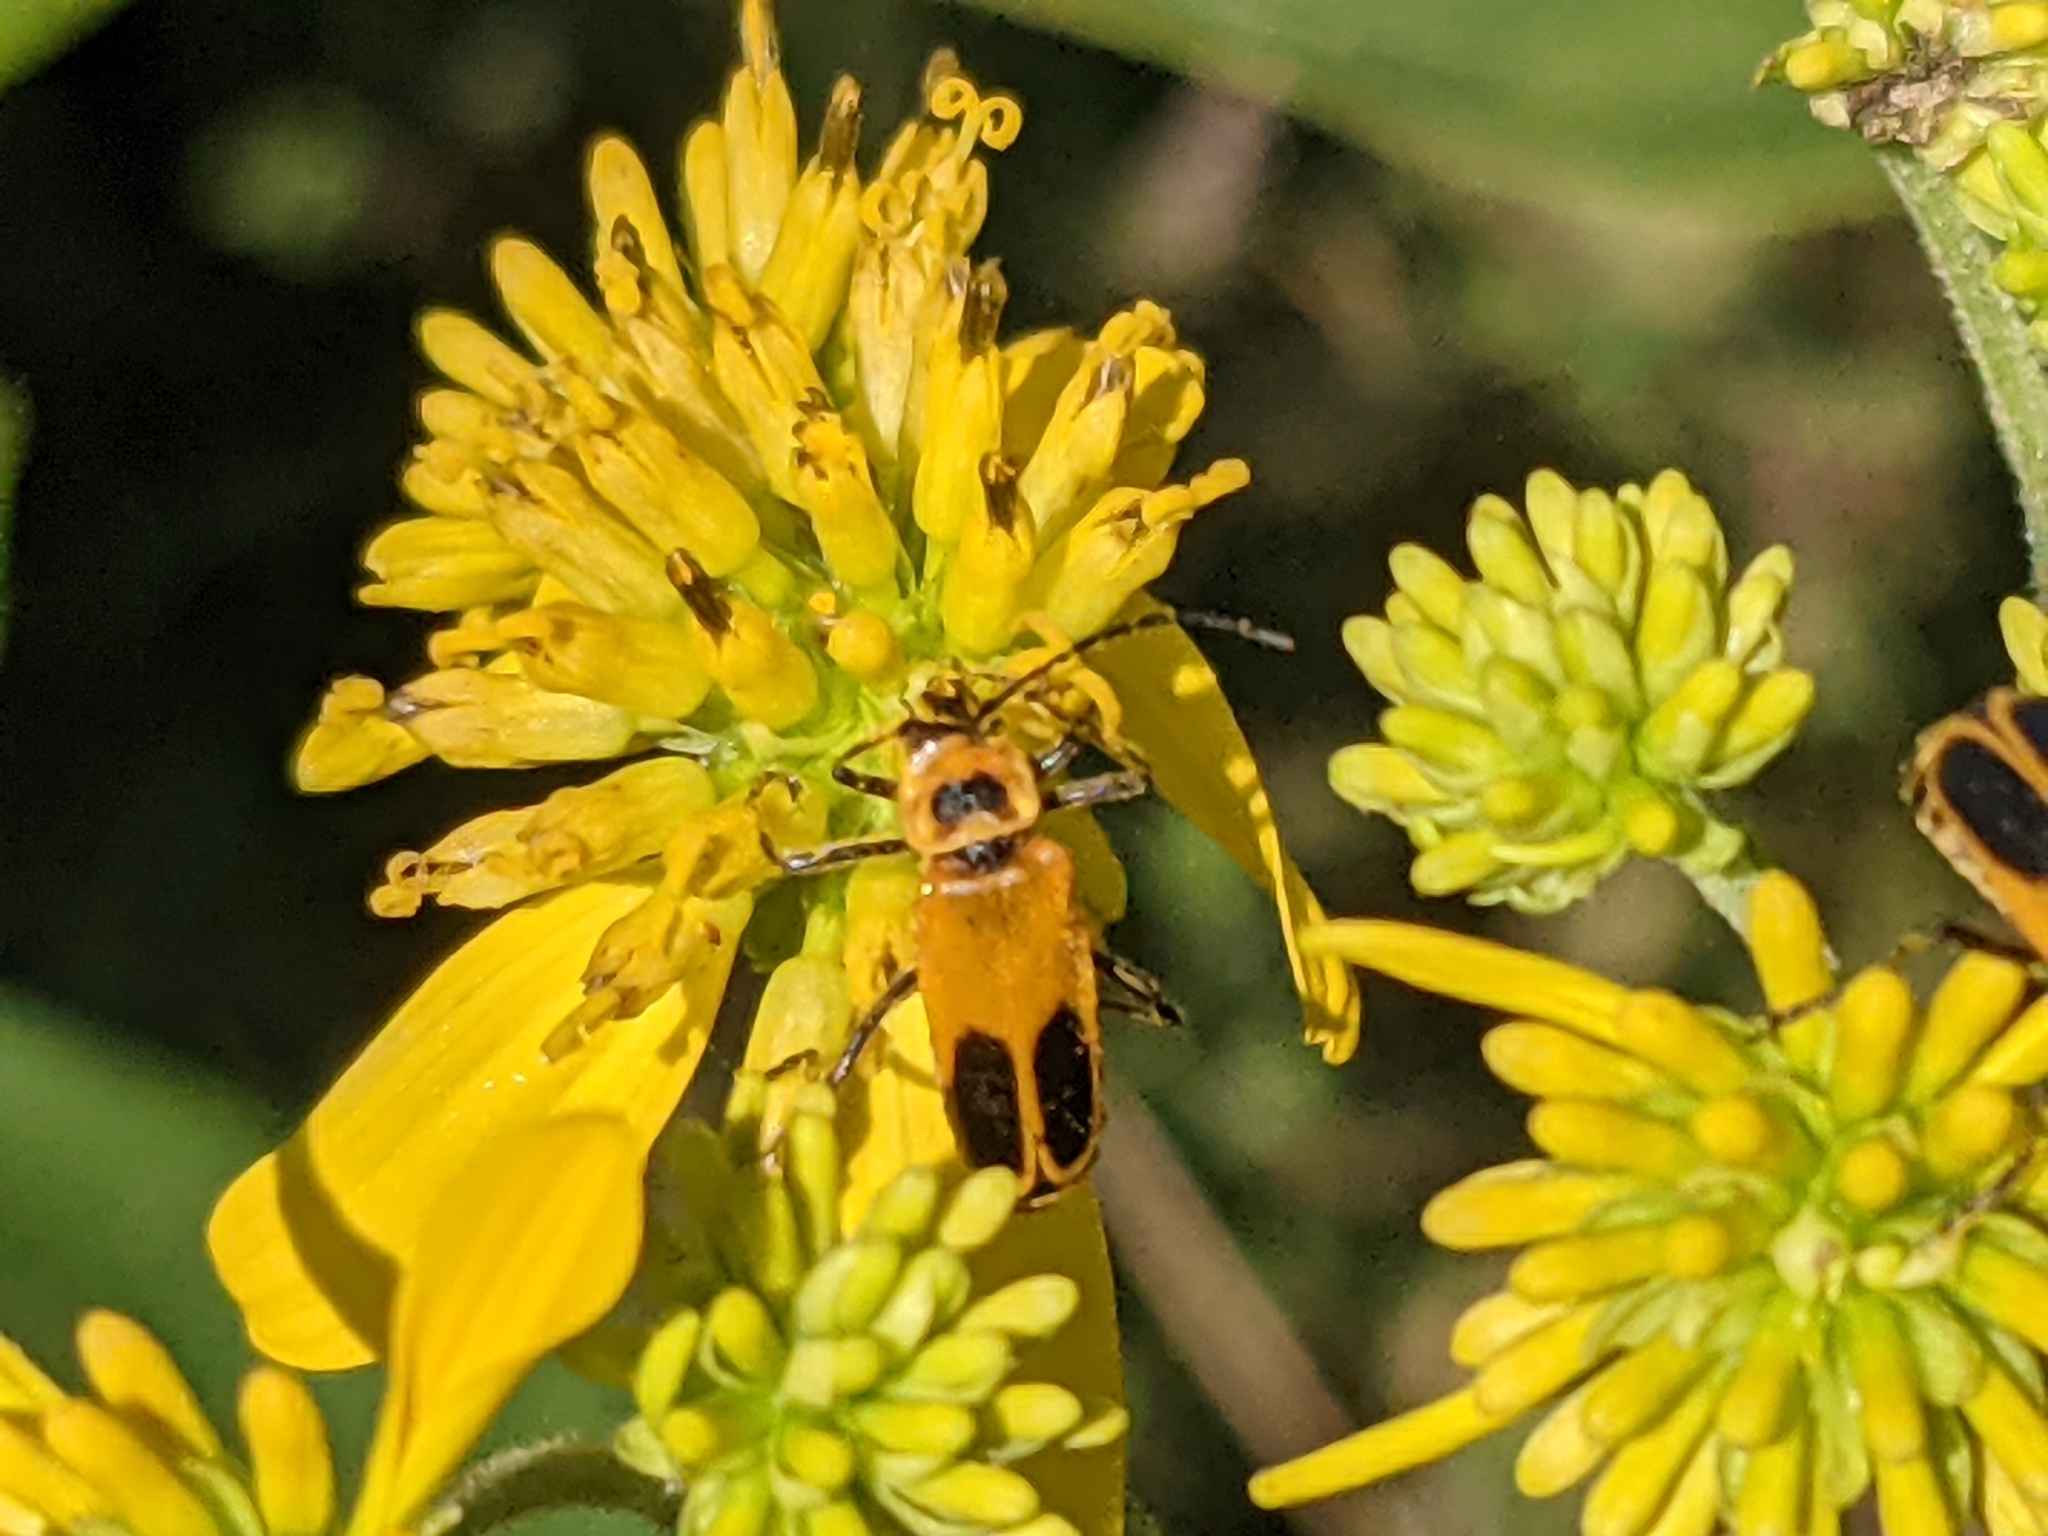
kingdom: Animalia
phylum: Arthropoda
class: Insecta
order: Coleoptera
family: Cantharidae
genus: Chauliognathus
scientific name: Chauliognathus pensylvanicus
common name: Goldenrod soldier beetle
